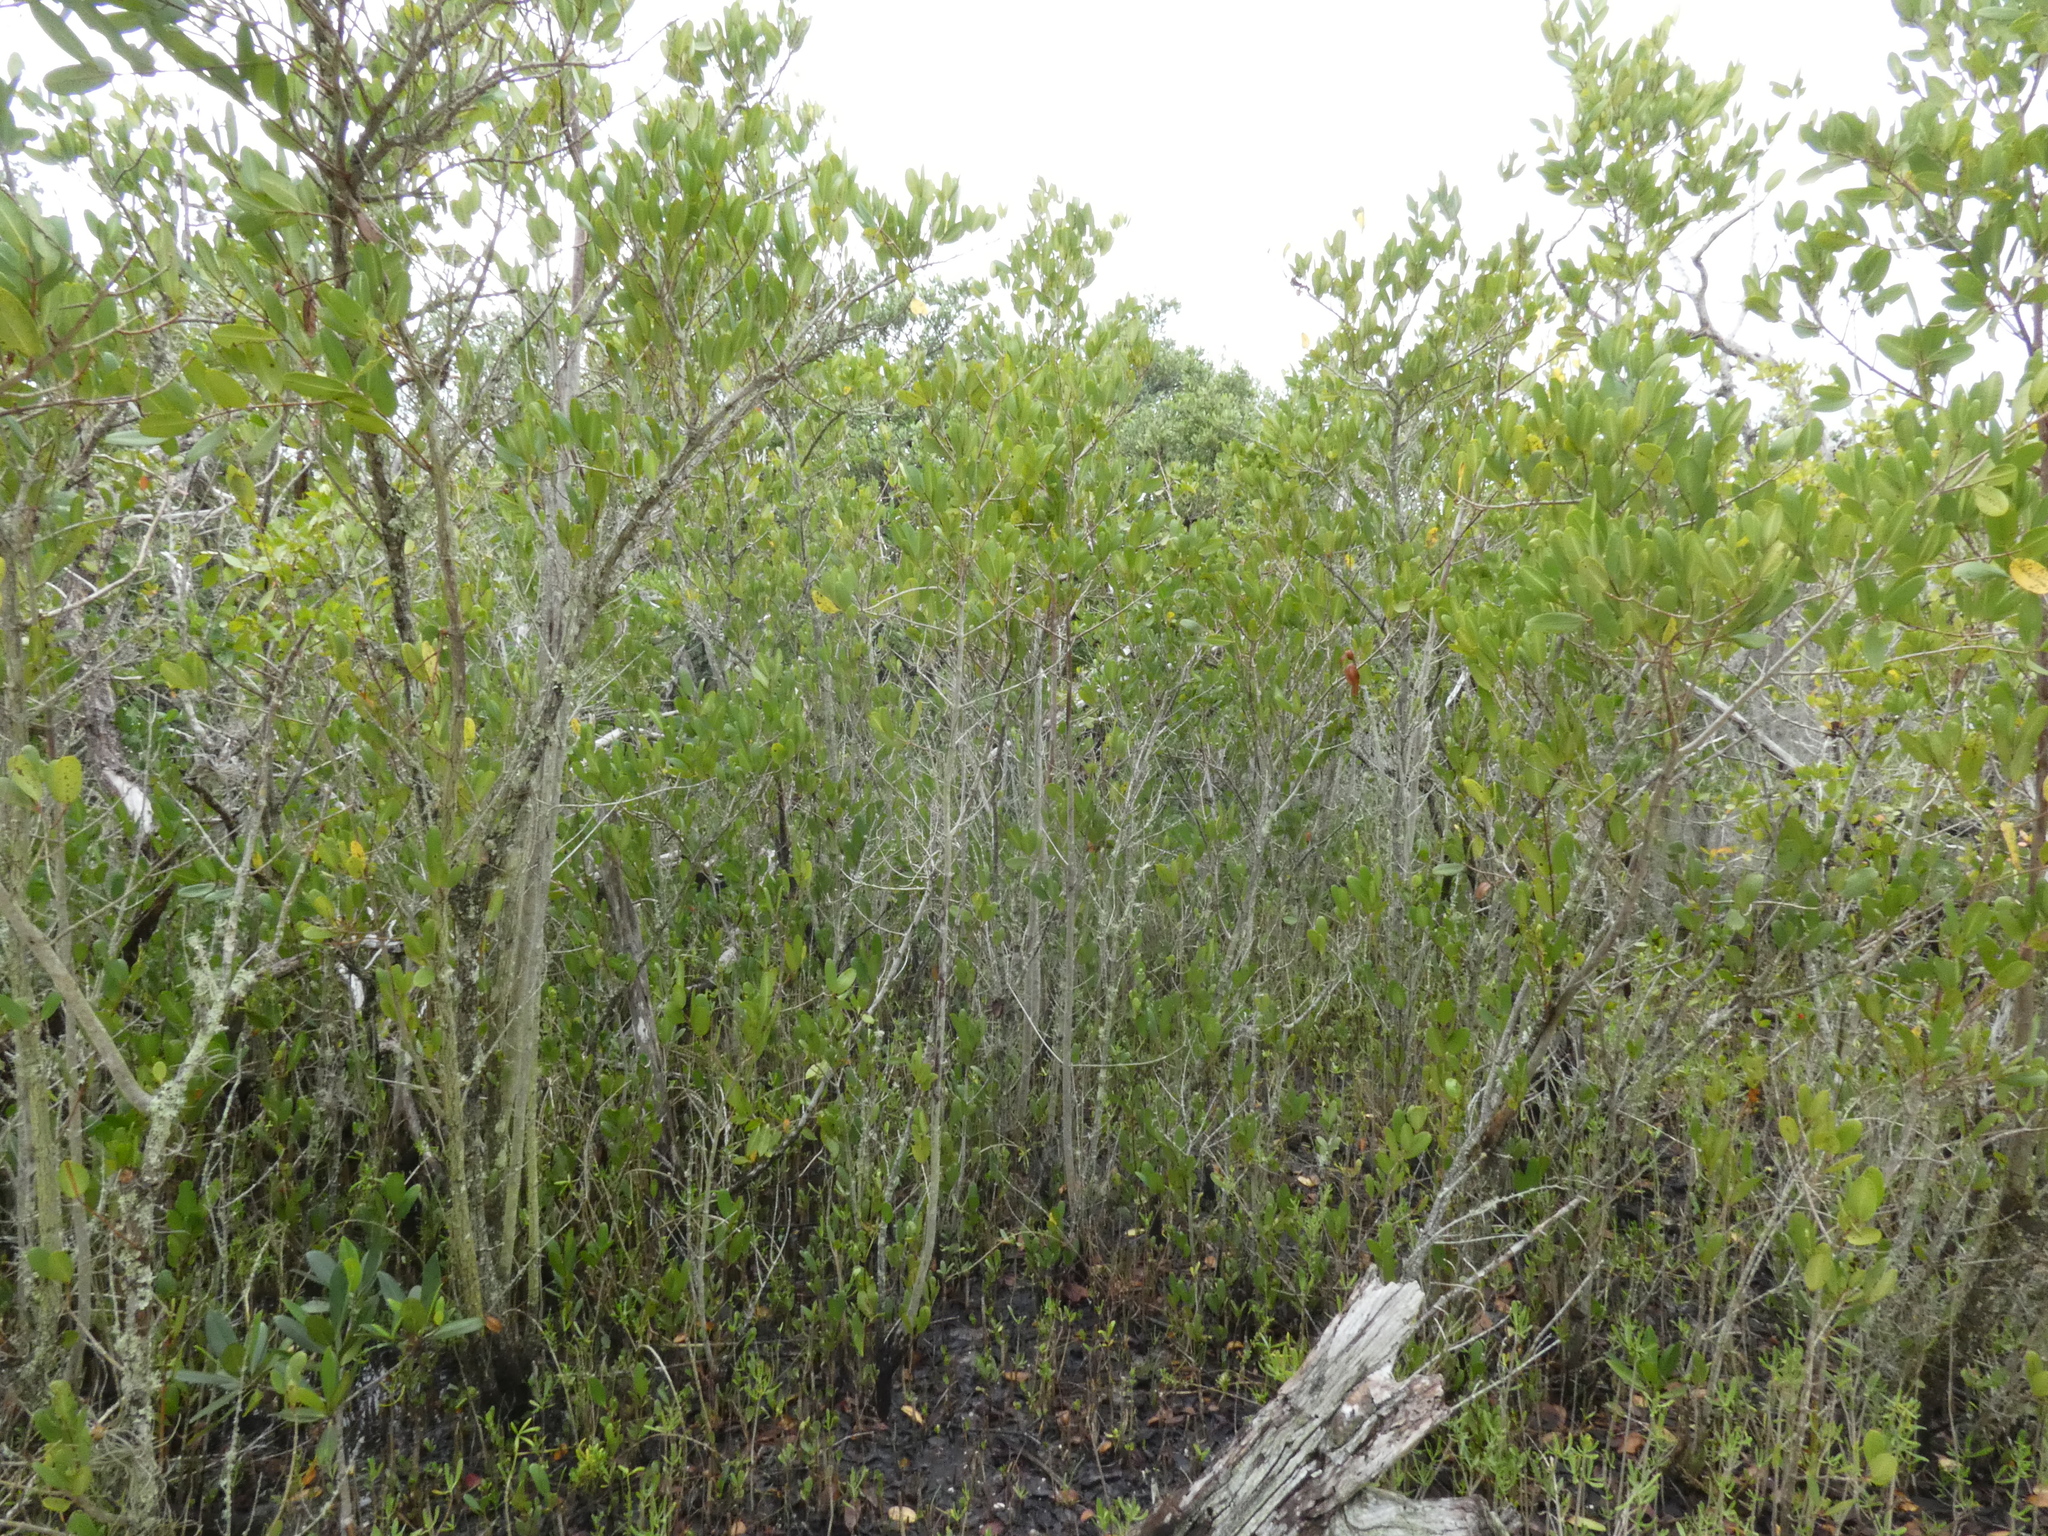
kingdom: Plantae
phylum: Tracheophyta
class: Magnoliopsida
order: Myrtales
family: Combretaceae
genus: Laguncularia
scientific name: Laguncularia racemosa
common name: White mangrove
